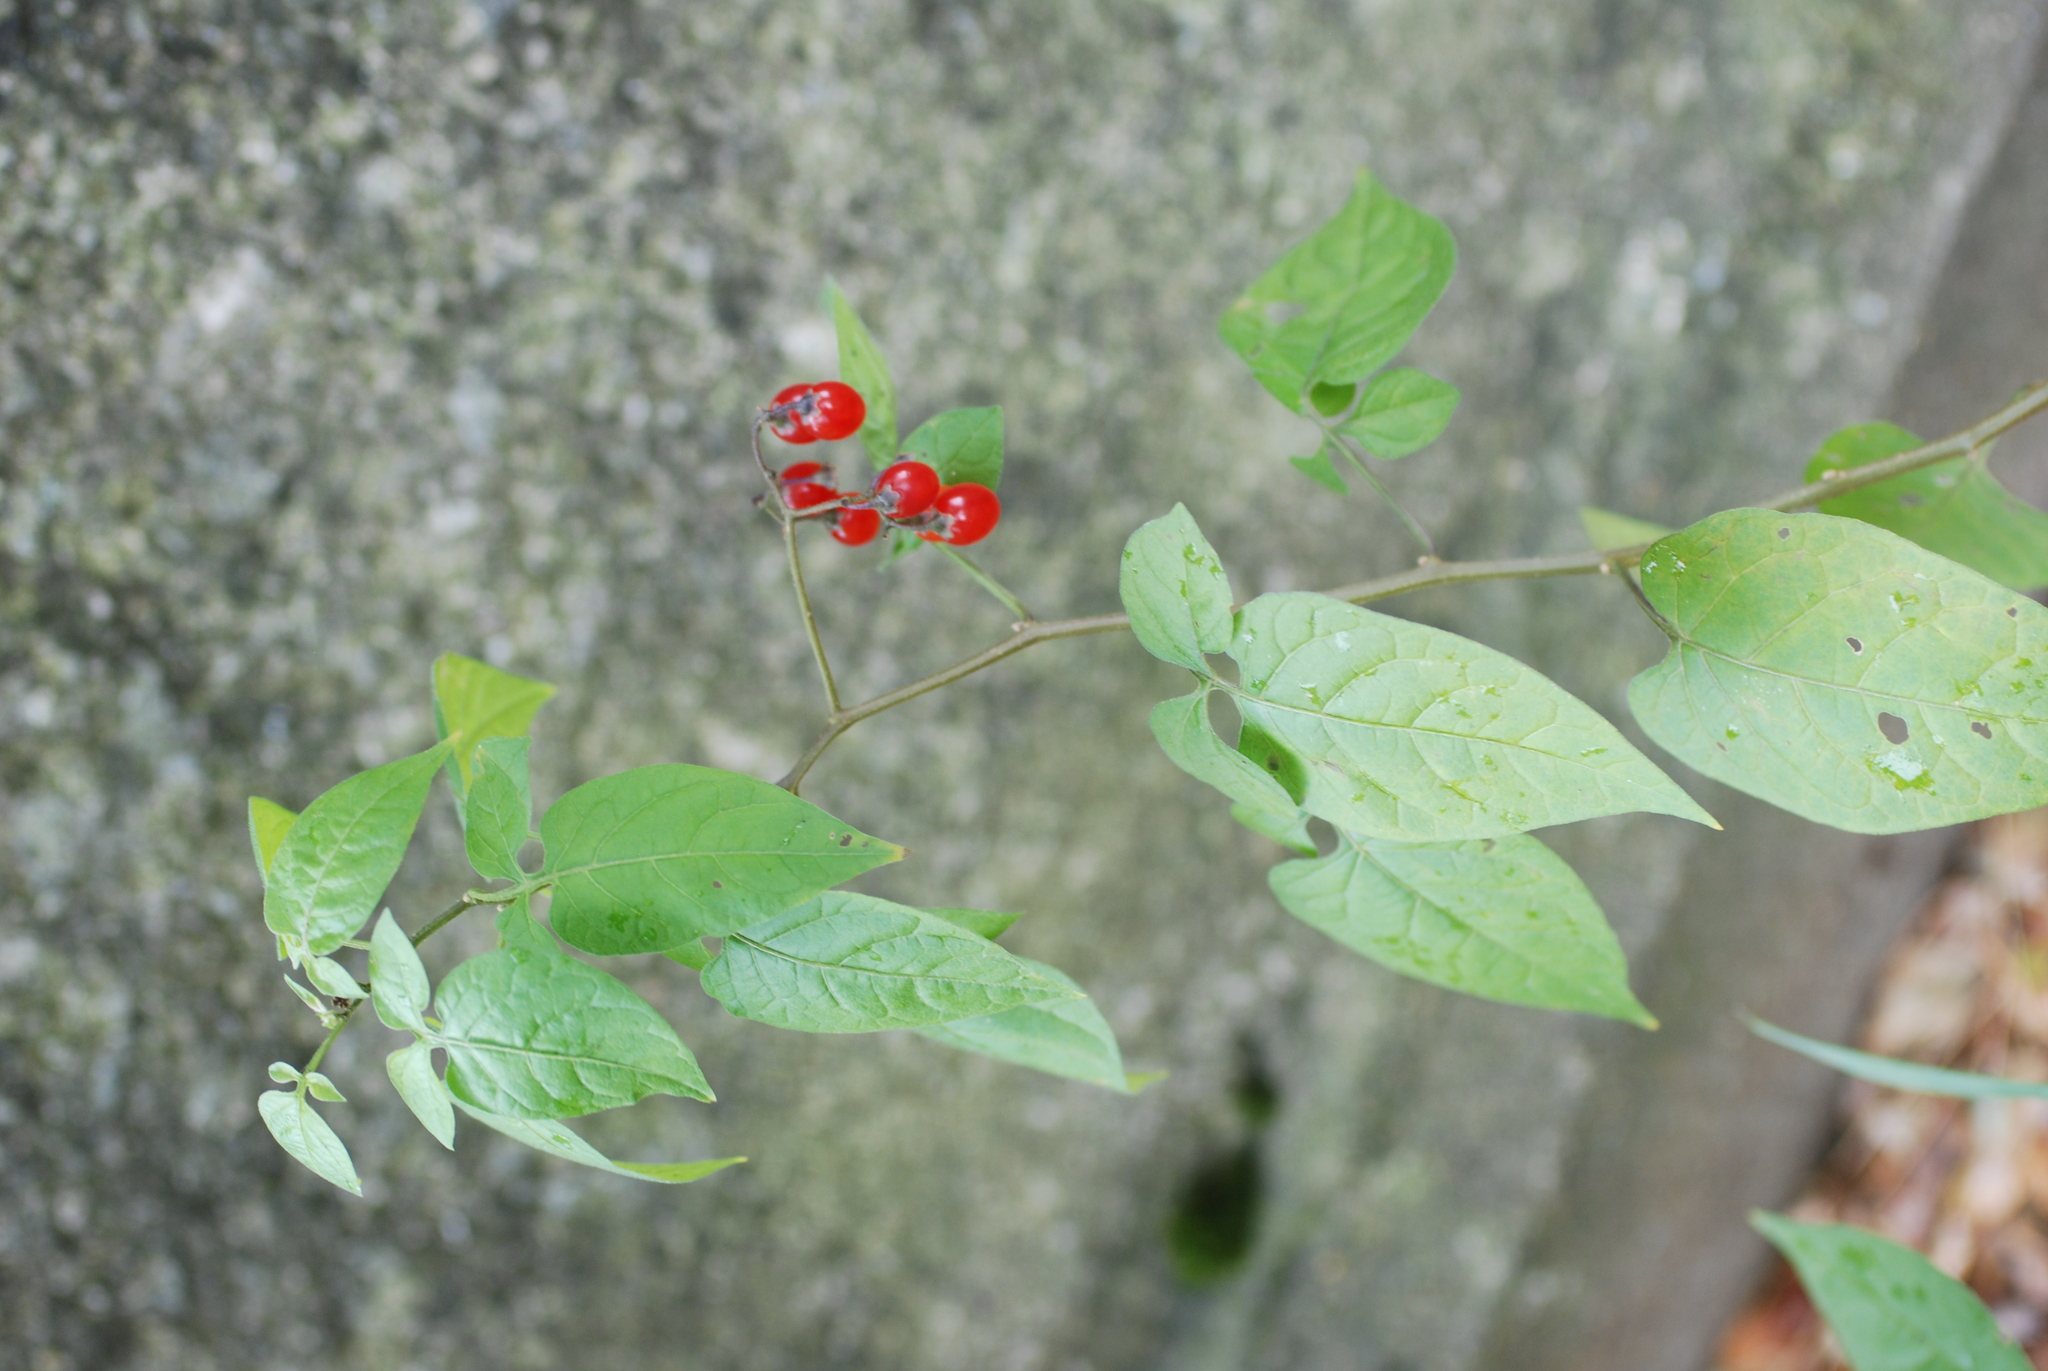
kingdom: Plantae
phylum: Tracheophyta
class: Magnoliopsida
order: Solanales
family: Solanaceae
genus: Solanum
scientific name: Solanum dulcamara
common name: Climbing nightshade
